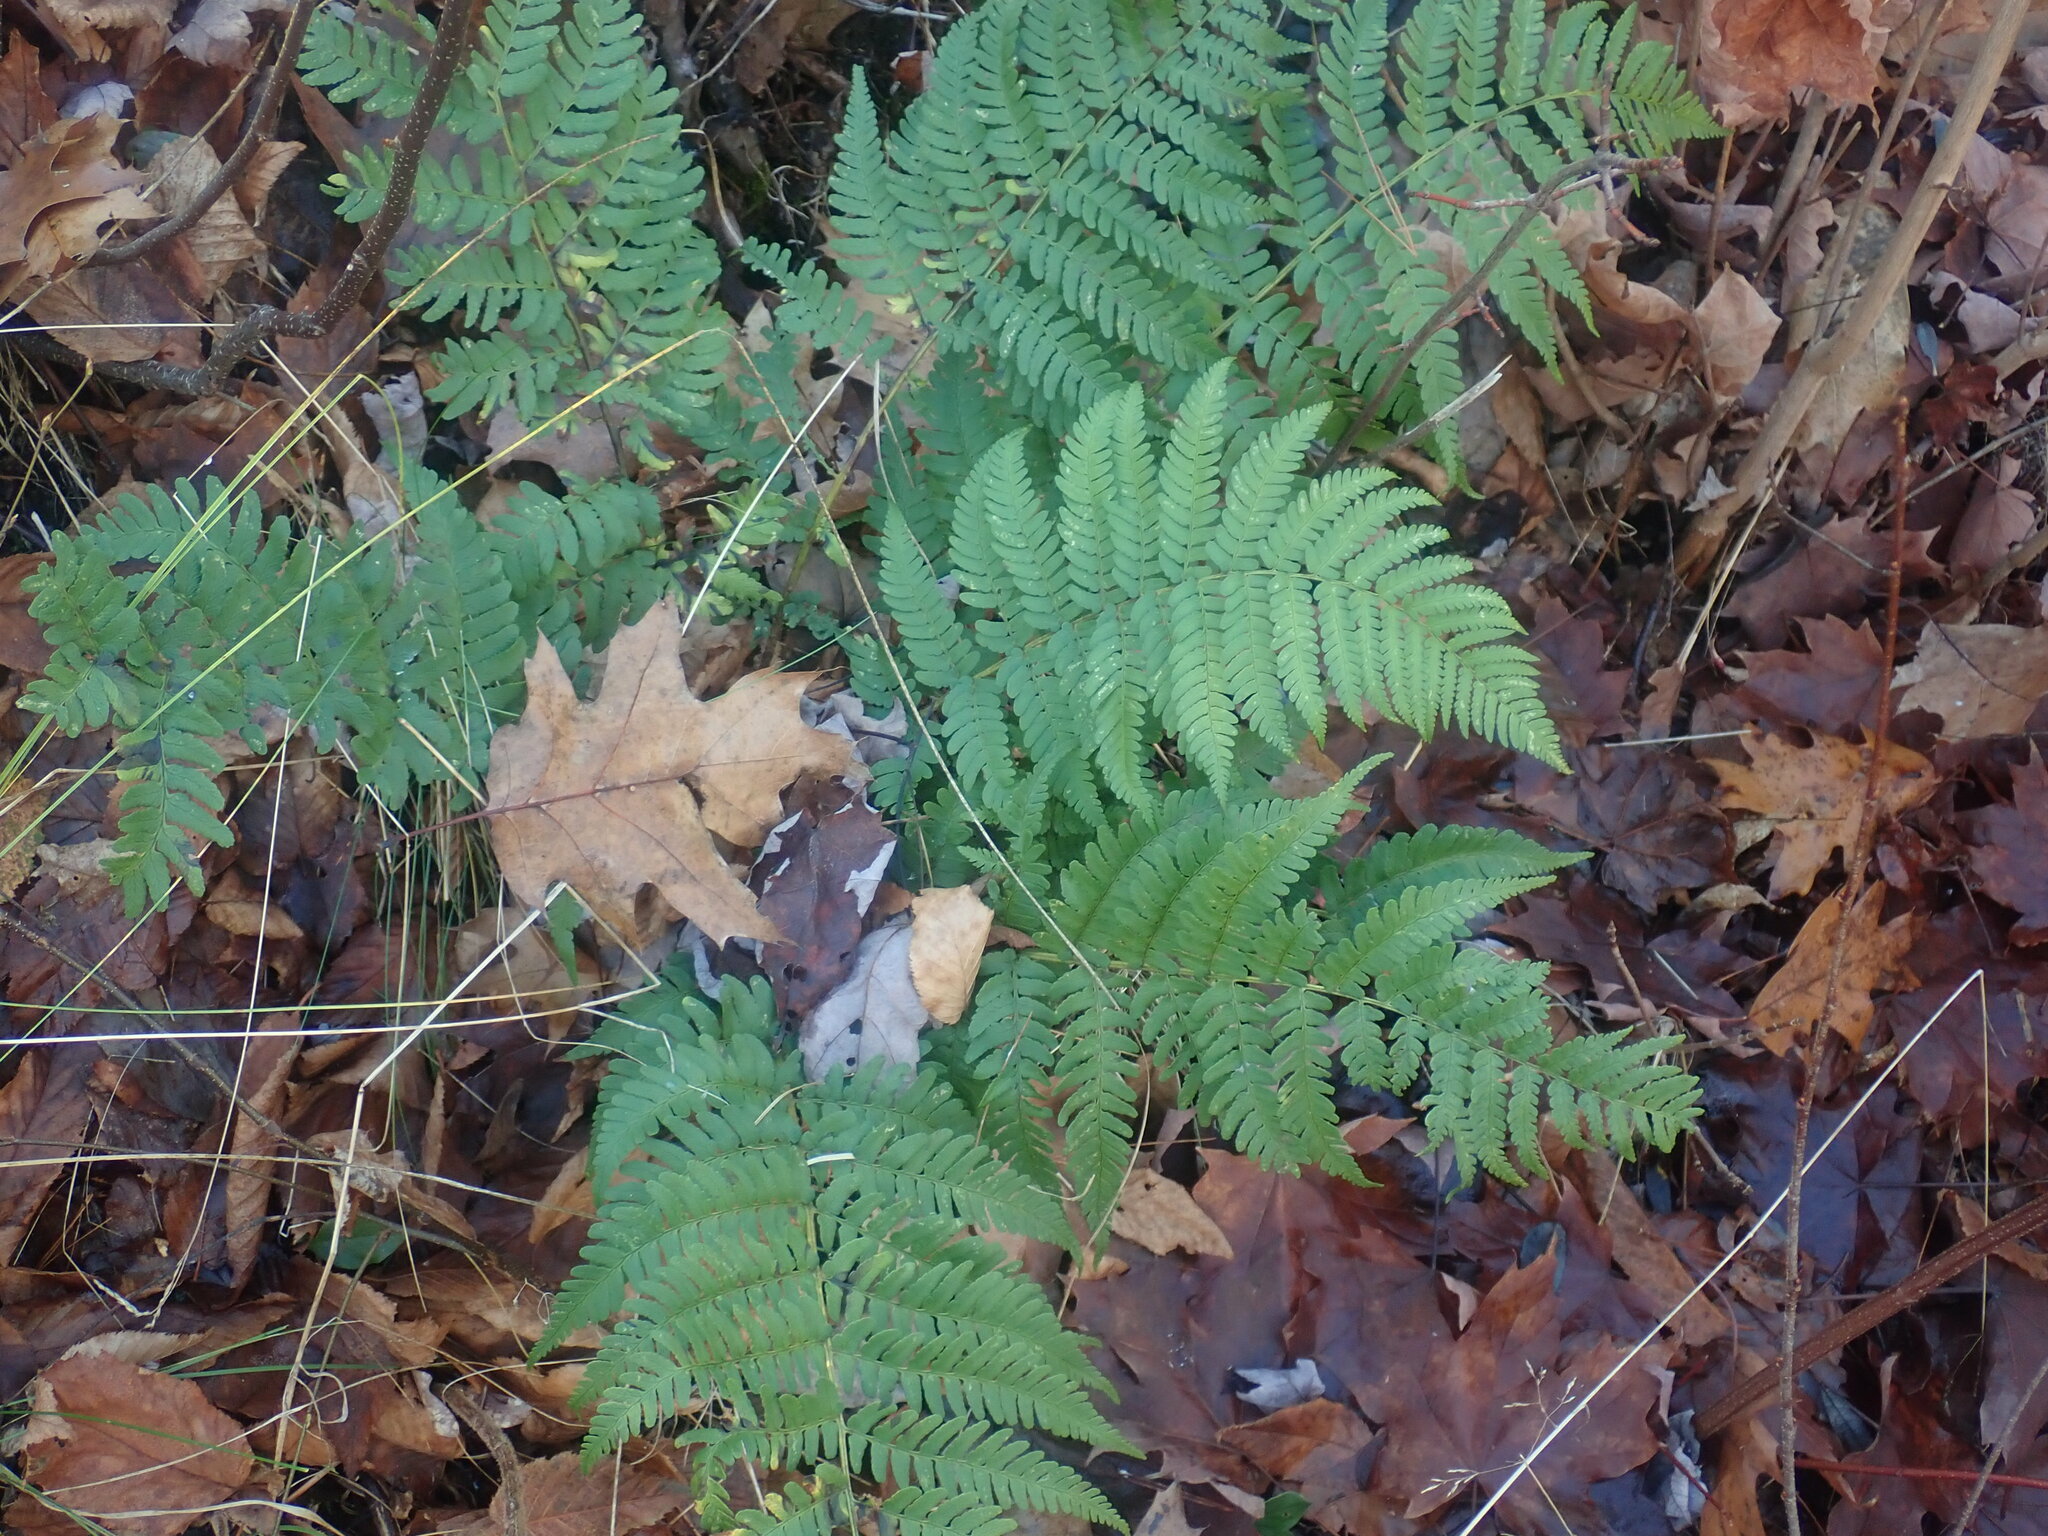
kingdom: Plantae
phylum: Tracheophyta
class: Polypodiopsida
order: Polypodiales
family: Dryopteridaceae
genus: Dryopteris
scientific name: Dryopteris marginalis
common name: Marginal wood fern
